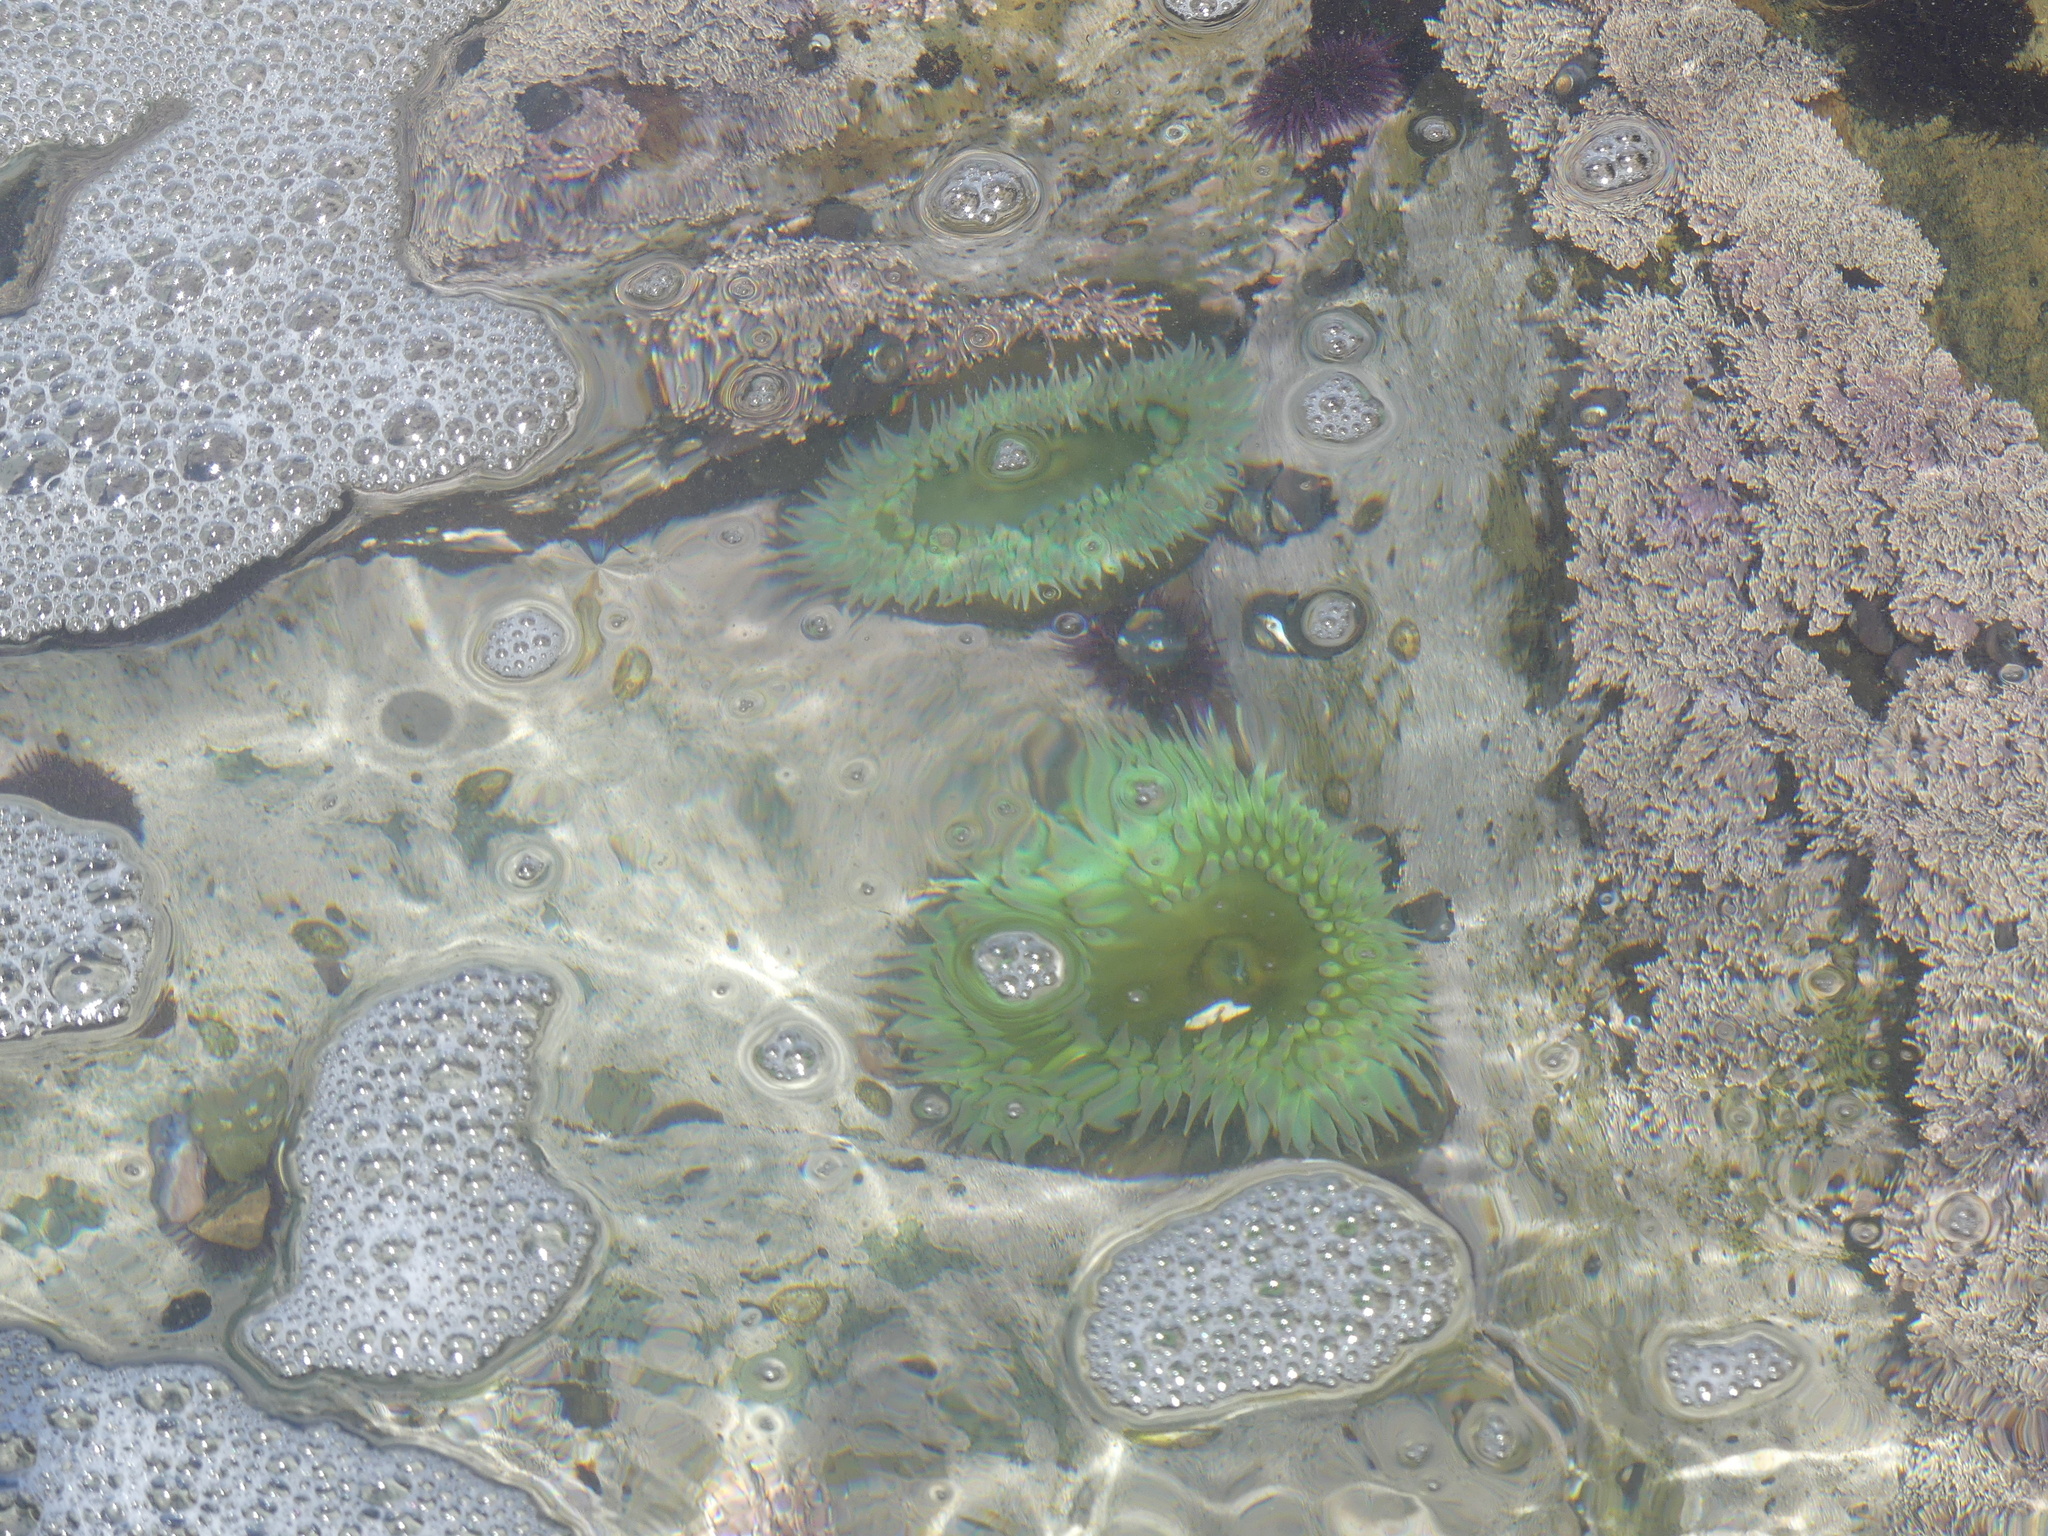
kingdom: Animalia
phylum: Cnidaria
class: Anthozoa
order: Actiniaria
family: Actiniidae
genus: Anthopleura
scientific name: Anthopleura xanthogrammica
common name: Giant green anemone
